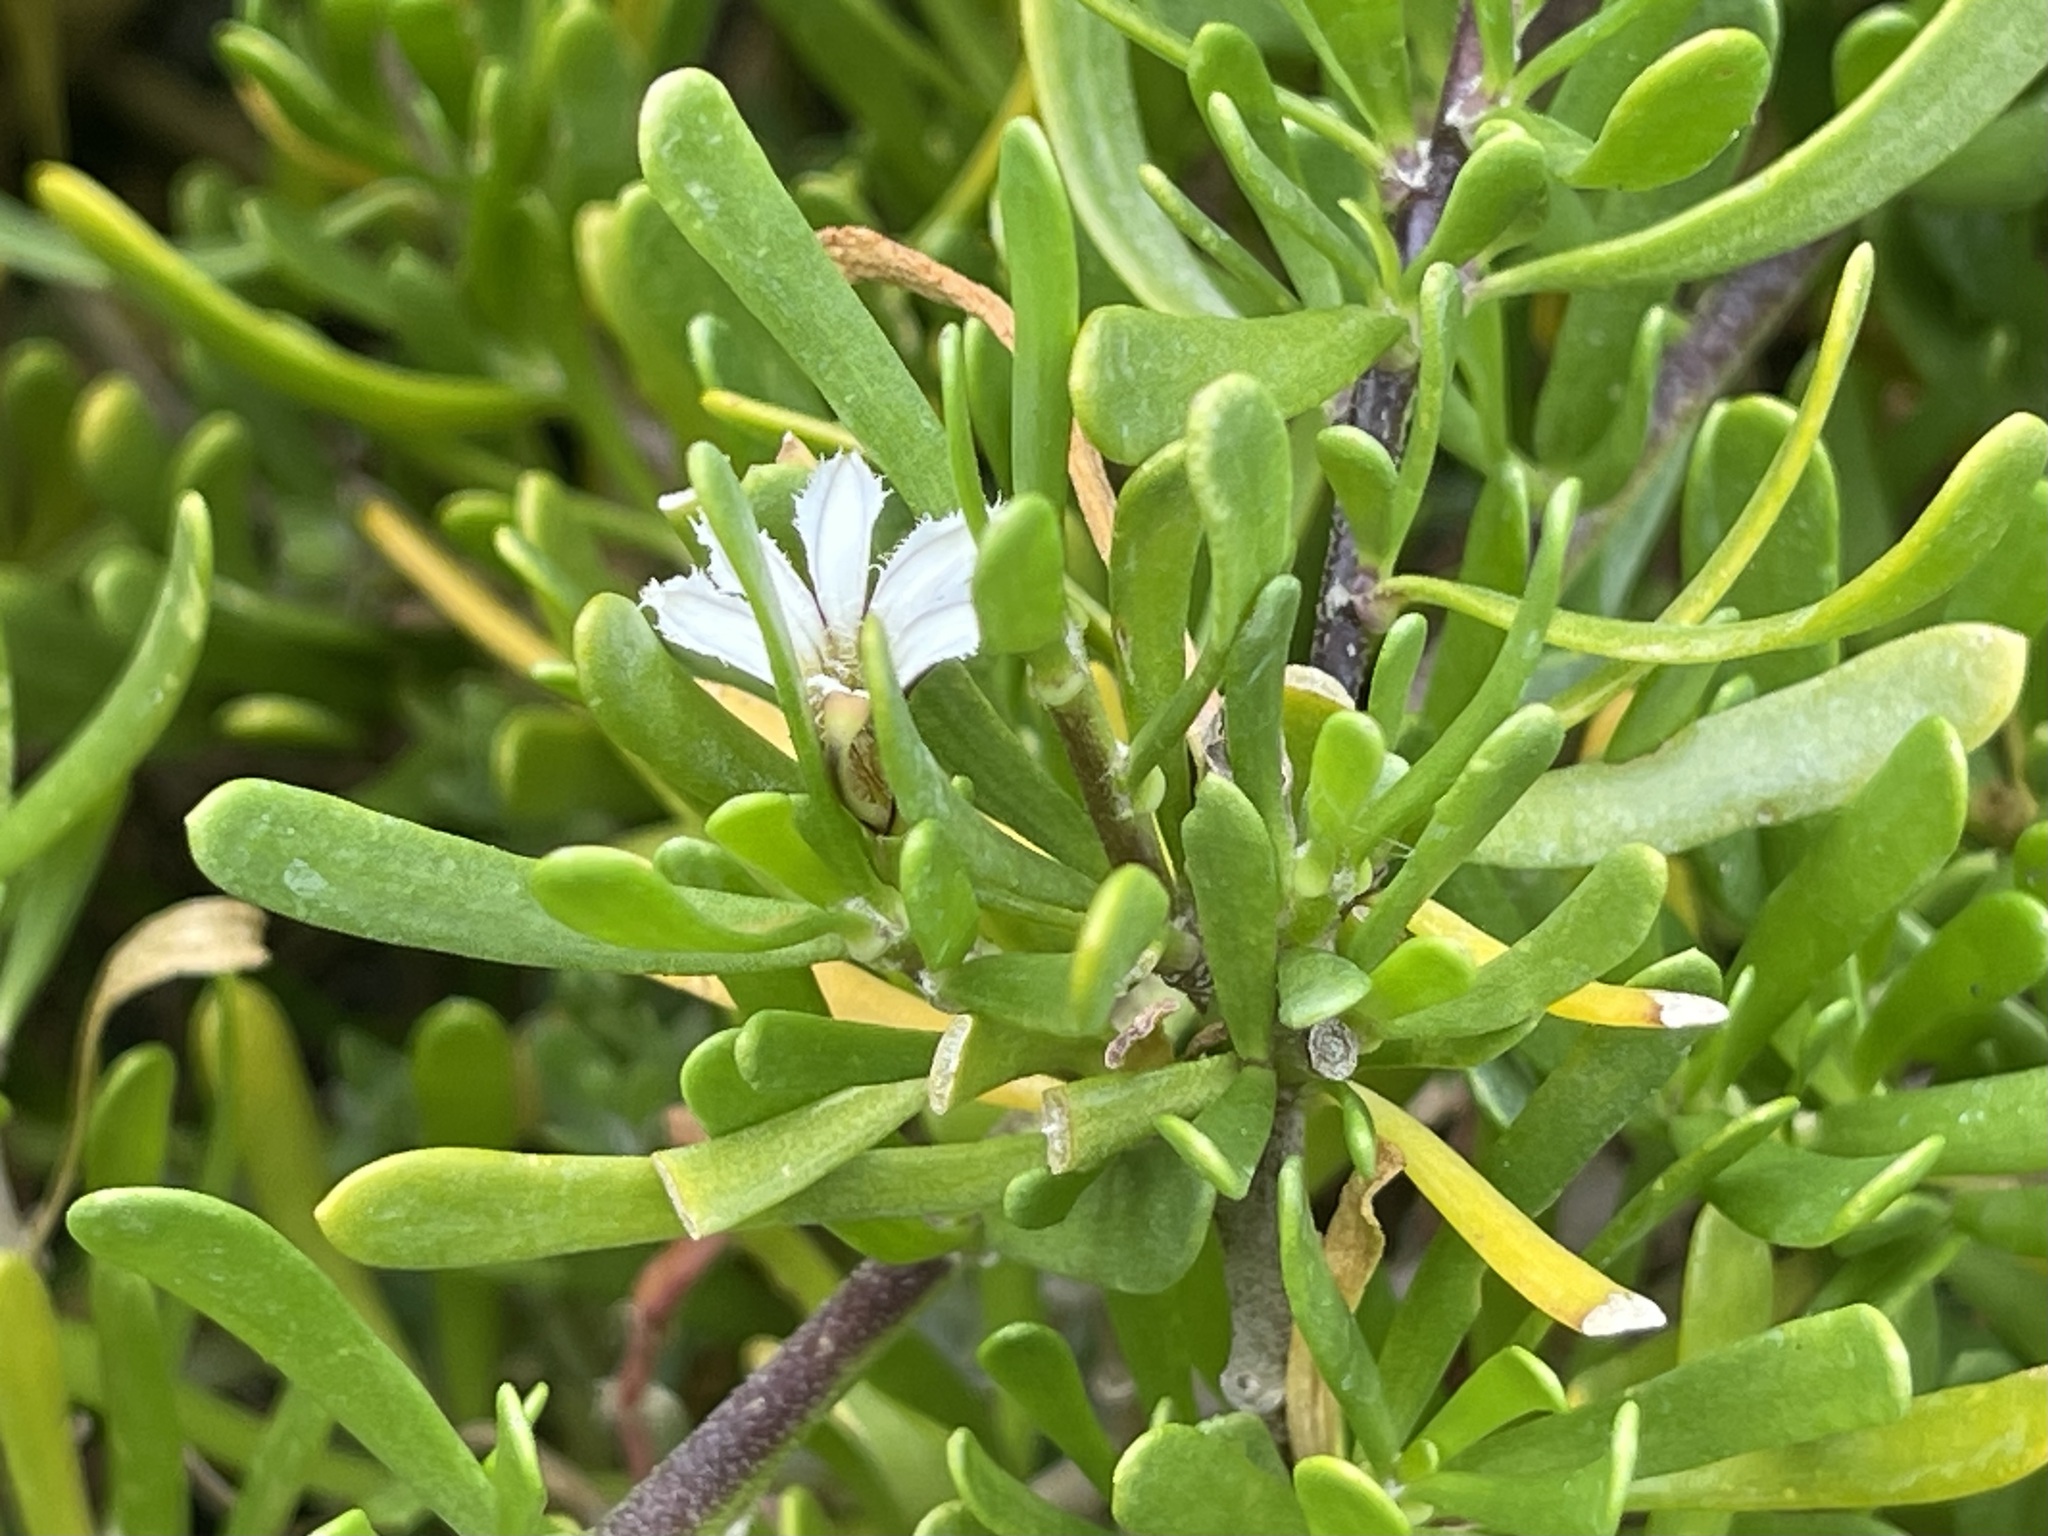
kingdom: Plantae
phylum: Tracheophyta
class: Magnoliopsida
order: Asterales
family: Goodeniaceae
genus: Scaevola
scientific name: Scaevola hainanensis
